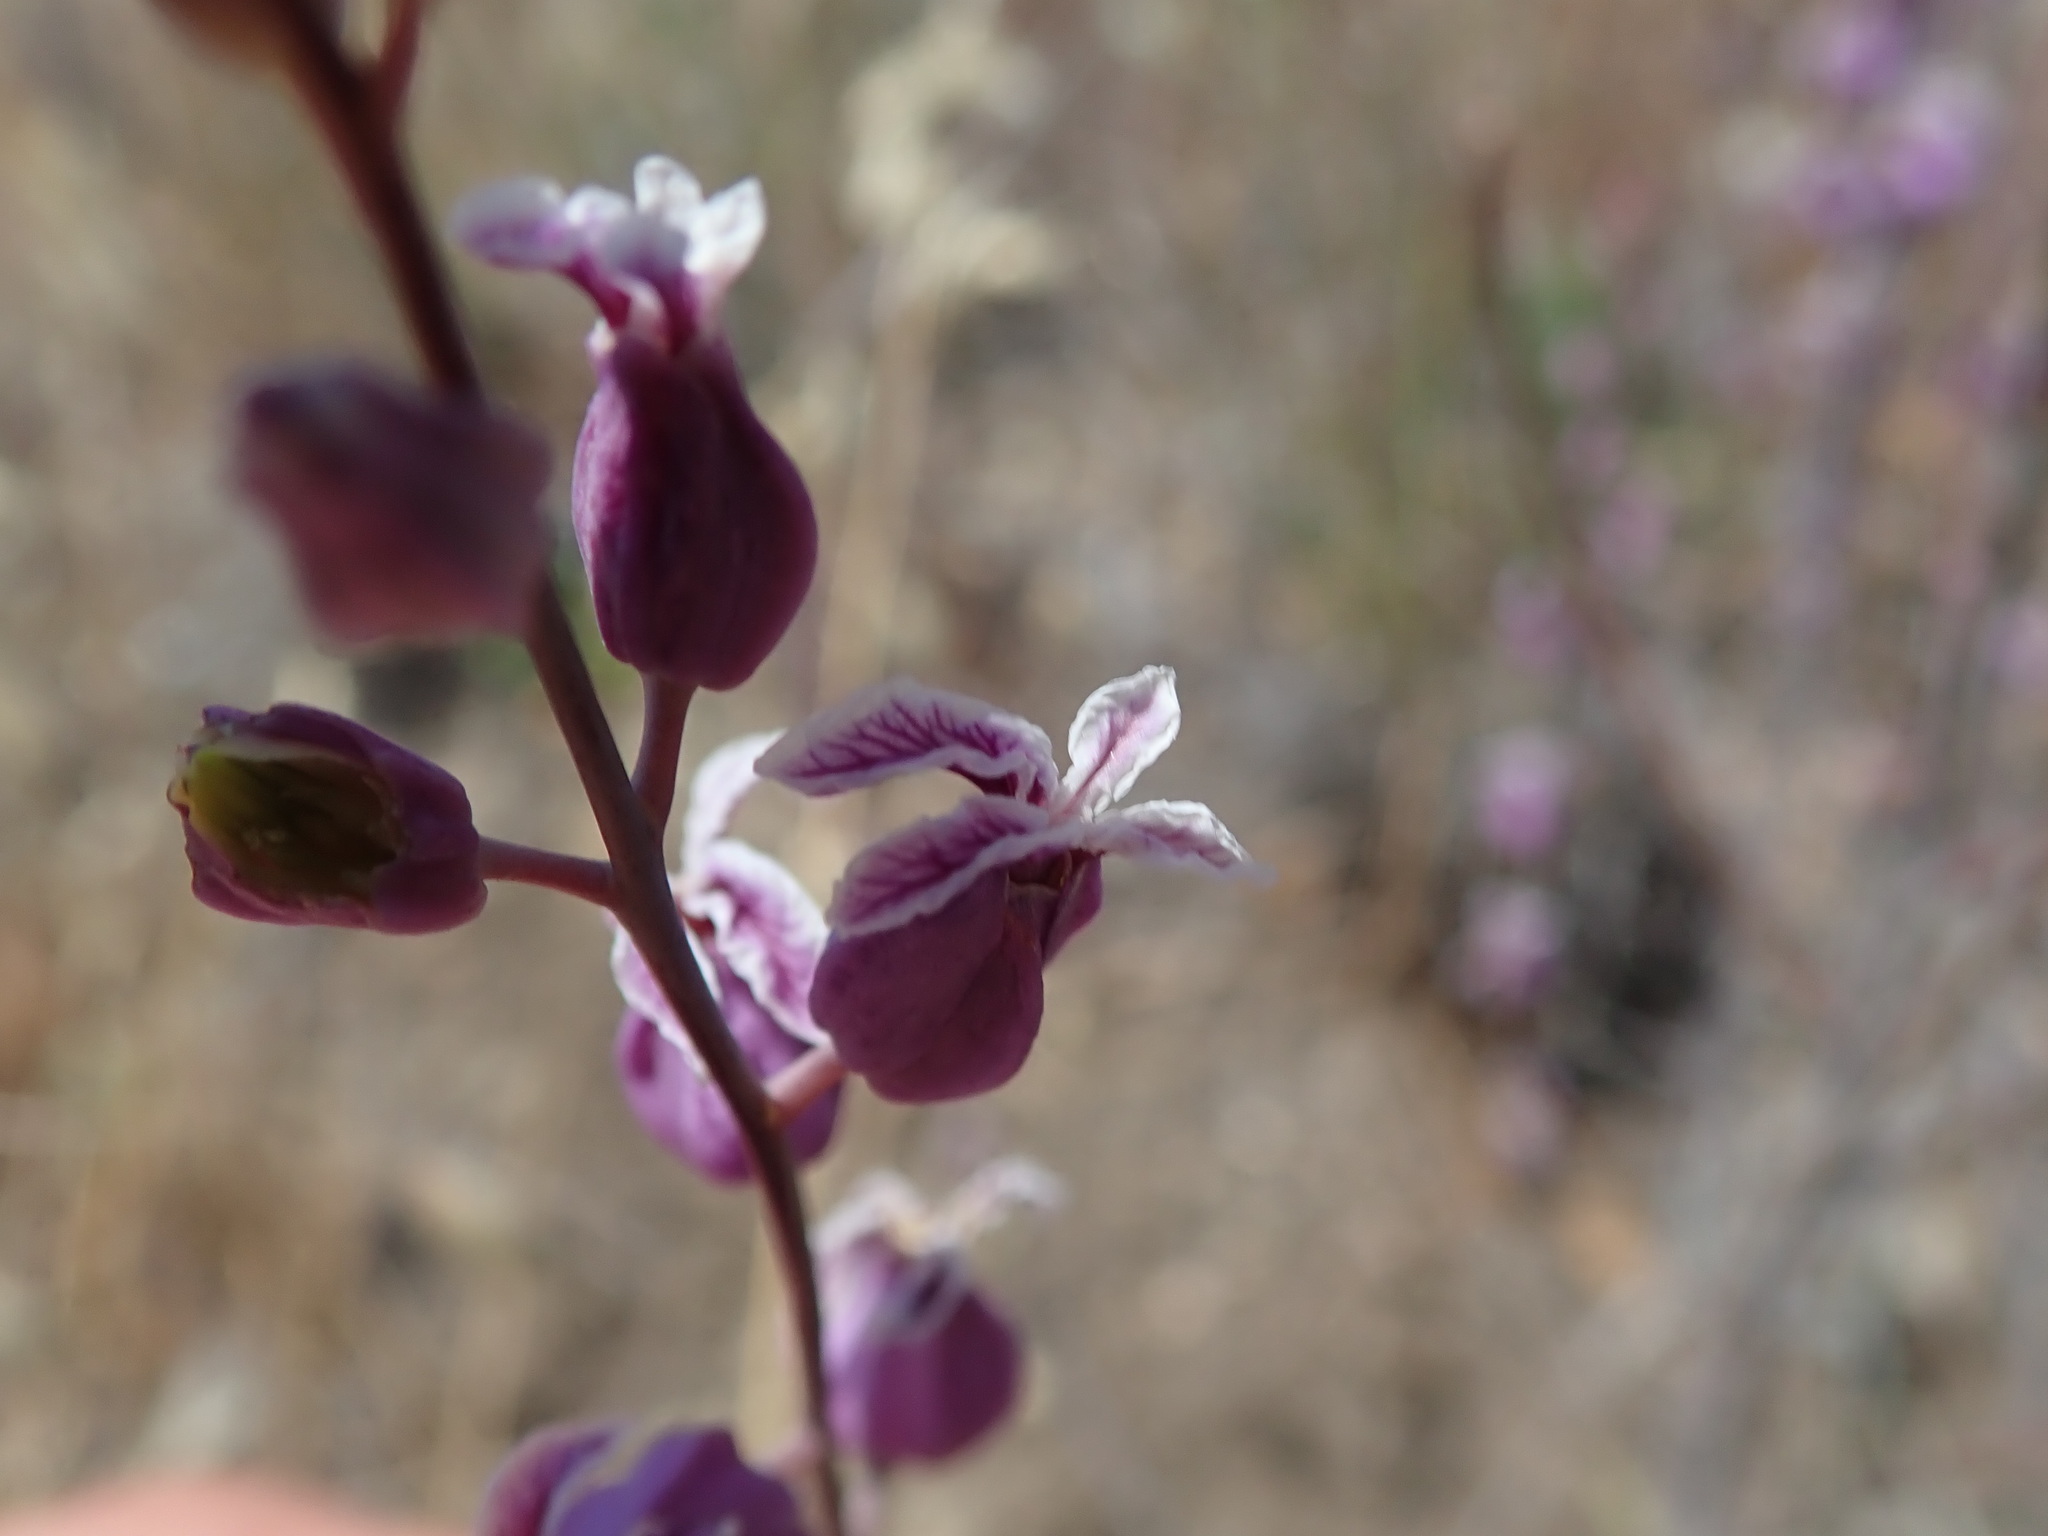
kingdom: Plantae
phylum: Tracheophyta
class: Magnoliopsida
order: Brassicales
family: Brassicaceae
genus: Streptanthus
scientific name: Streptanthus glandulosus
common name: Jewel-flower
